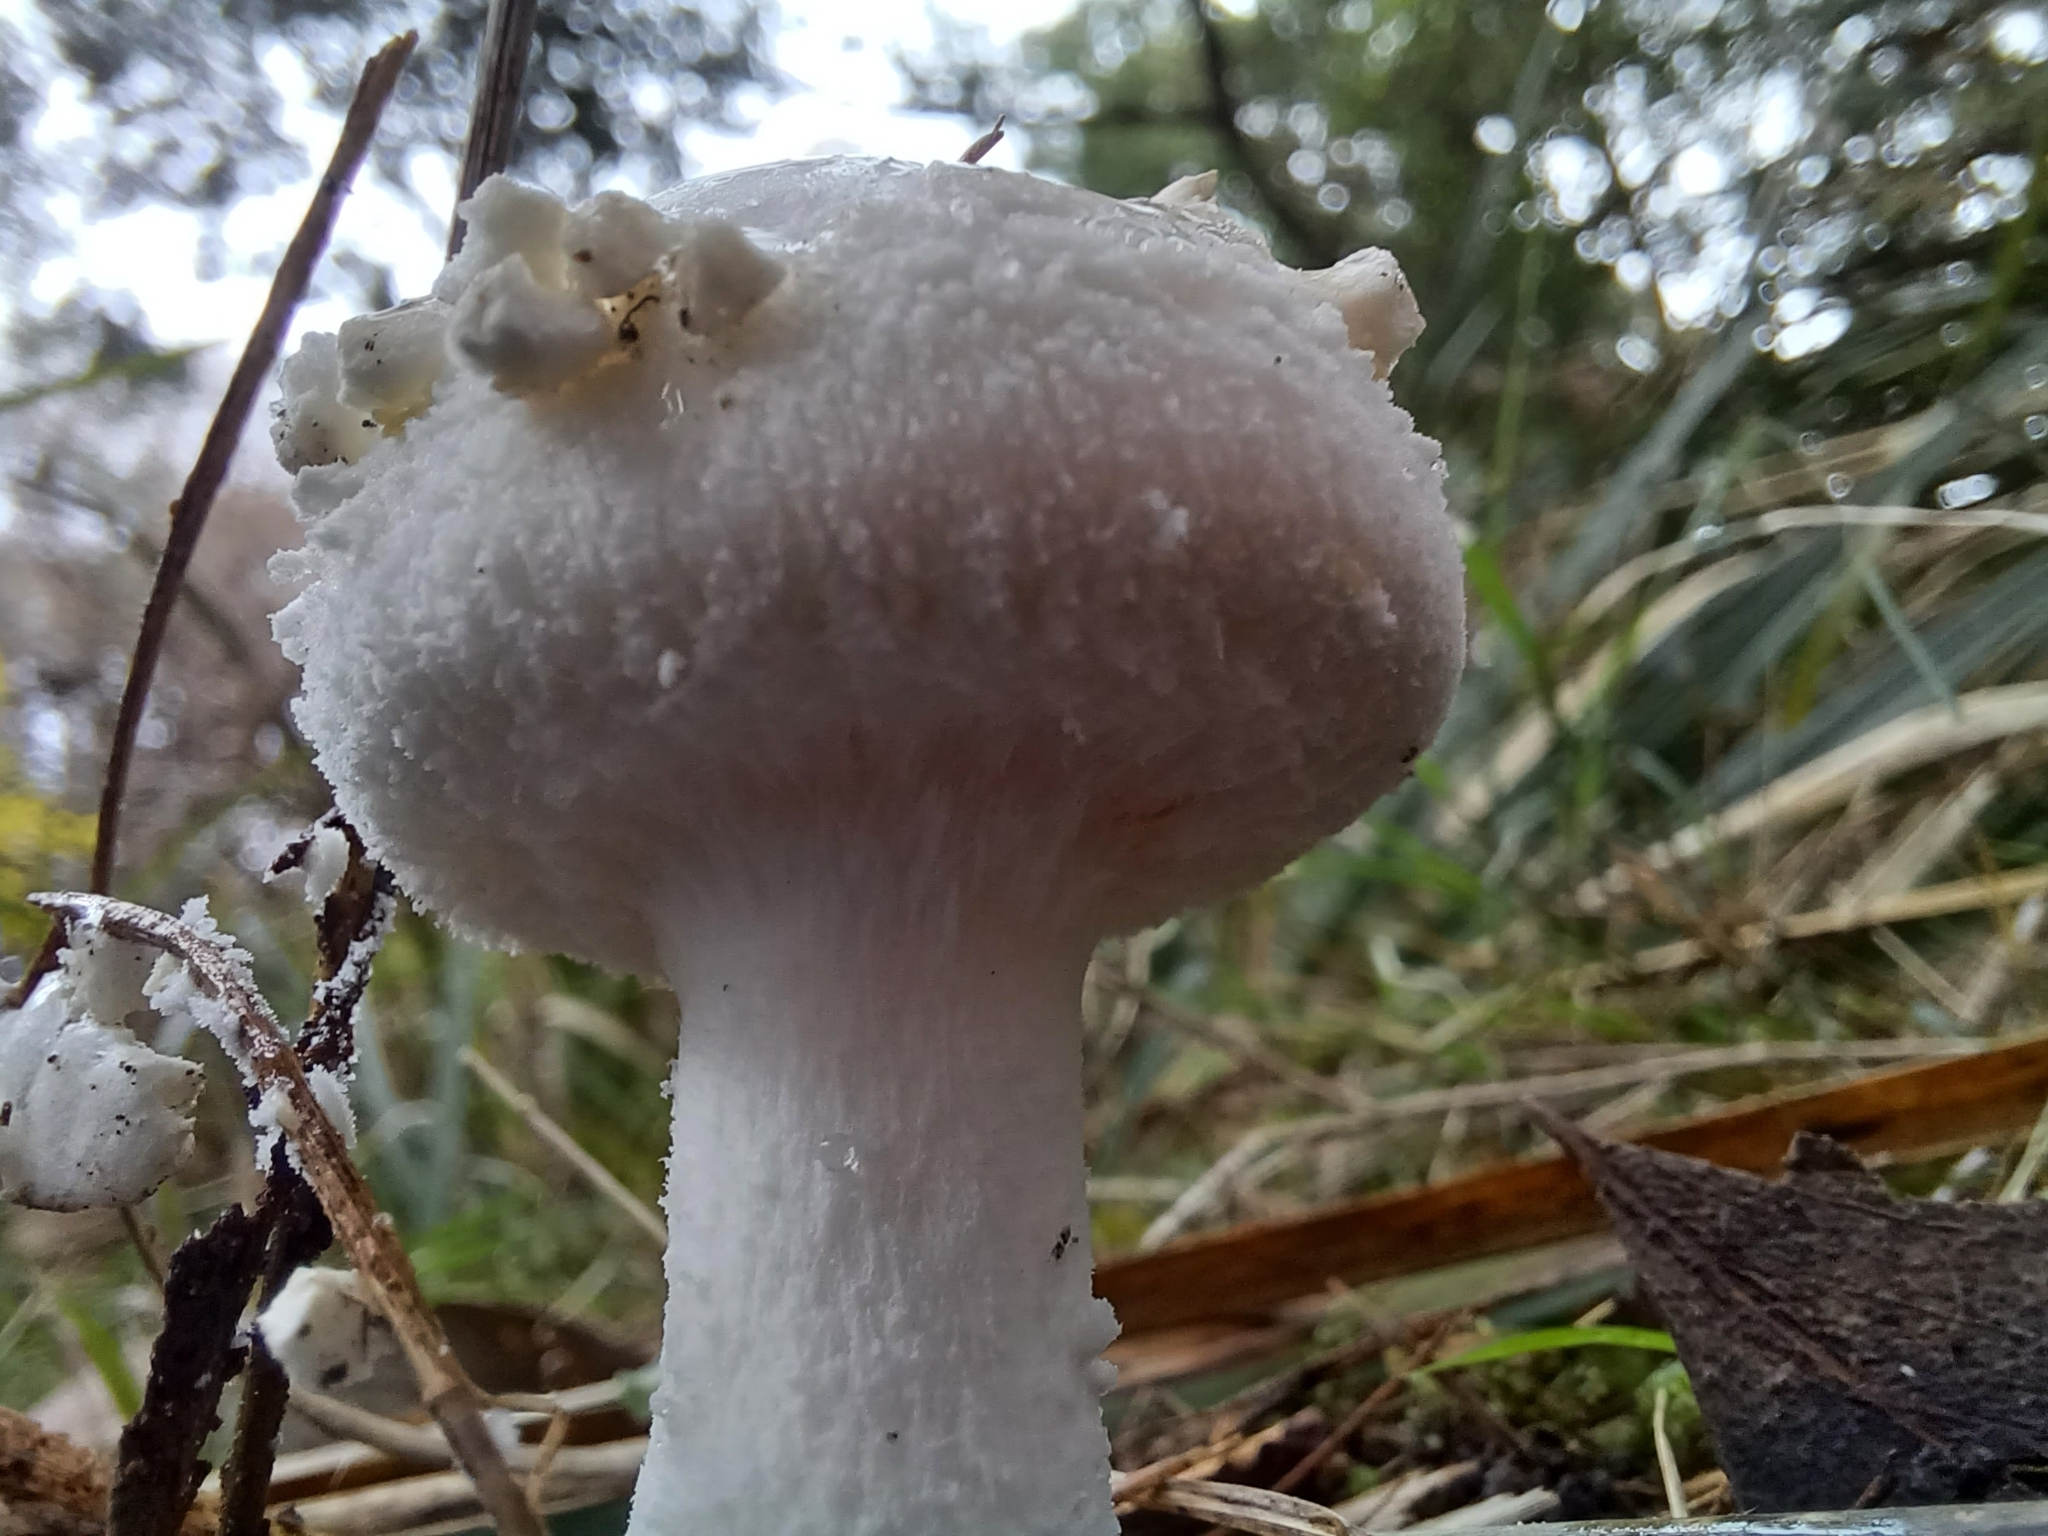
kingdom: Fungi
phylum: Basidiomycota
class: Agaricomycetes
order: Agaricales
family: Amanitaceae
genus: Amanita
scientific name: Amanita farinacea
